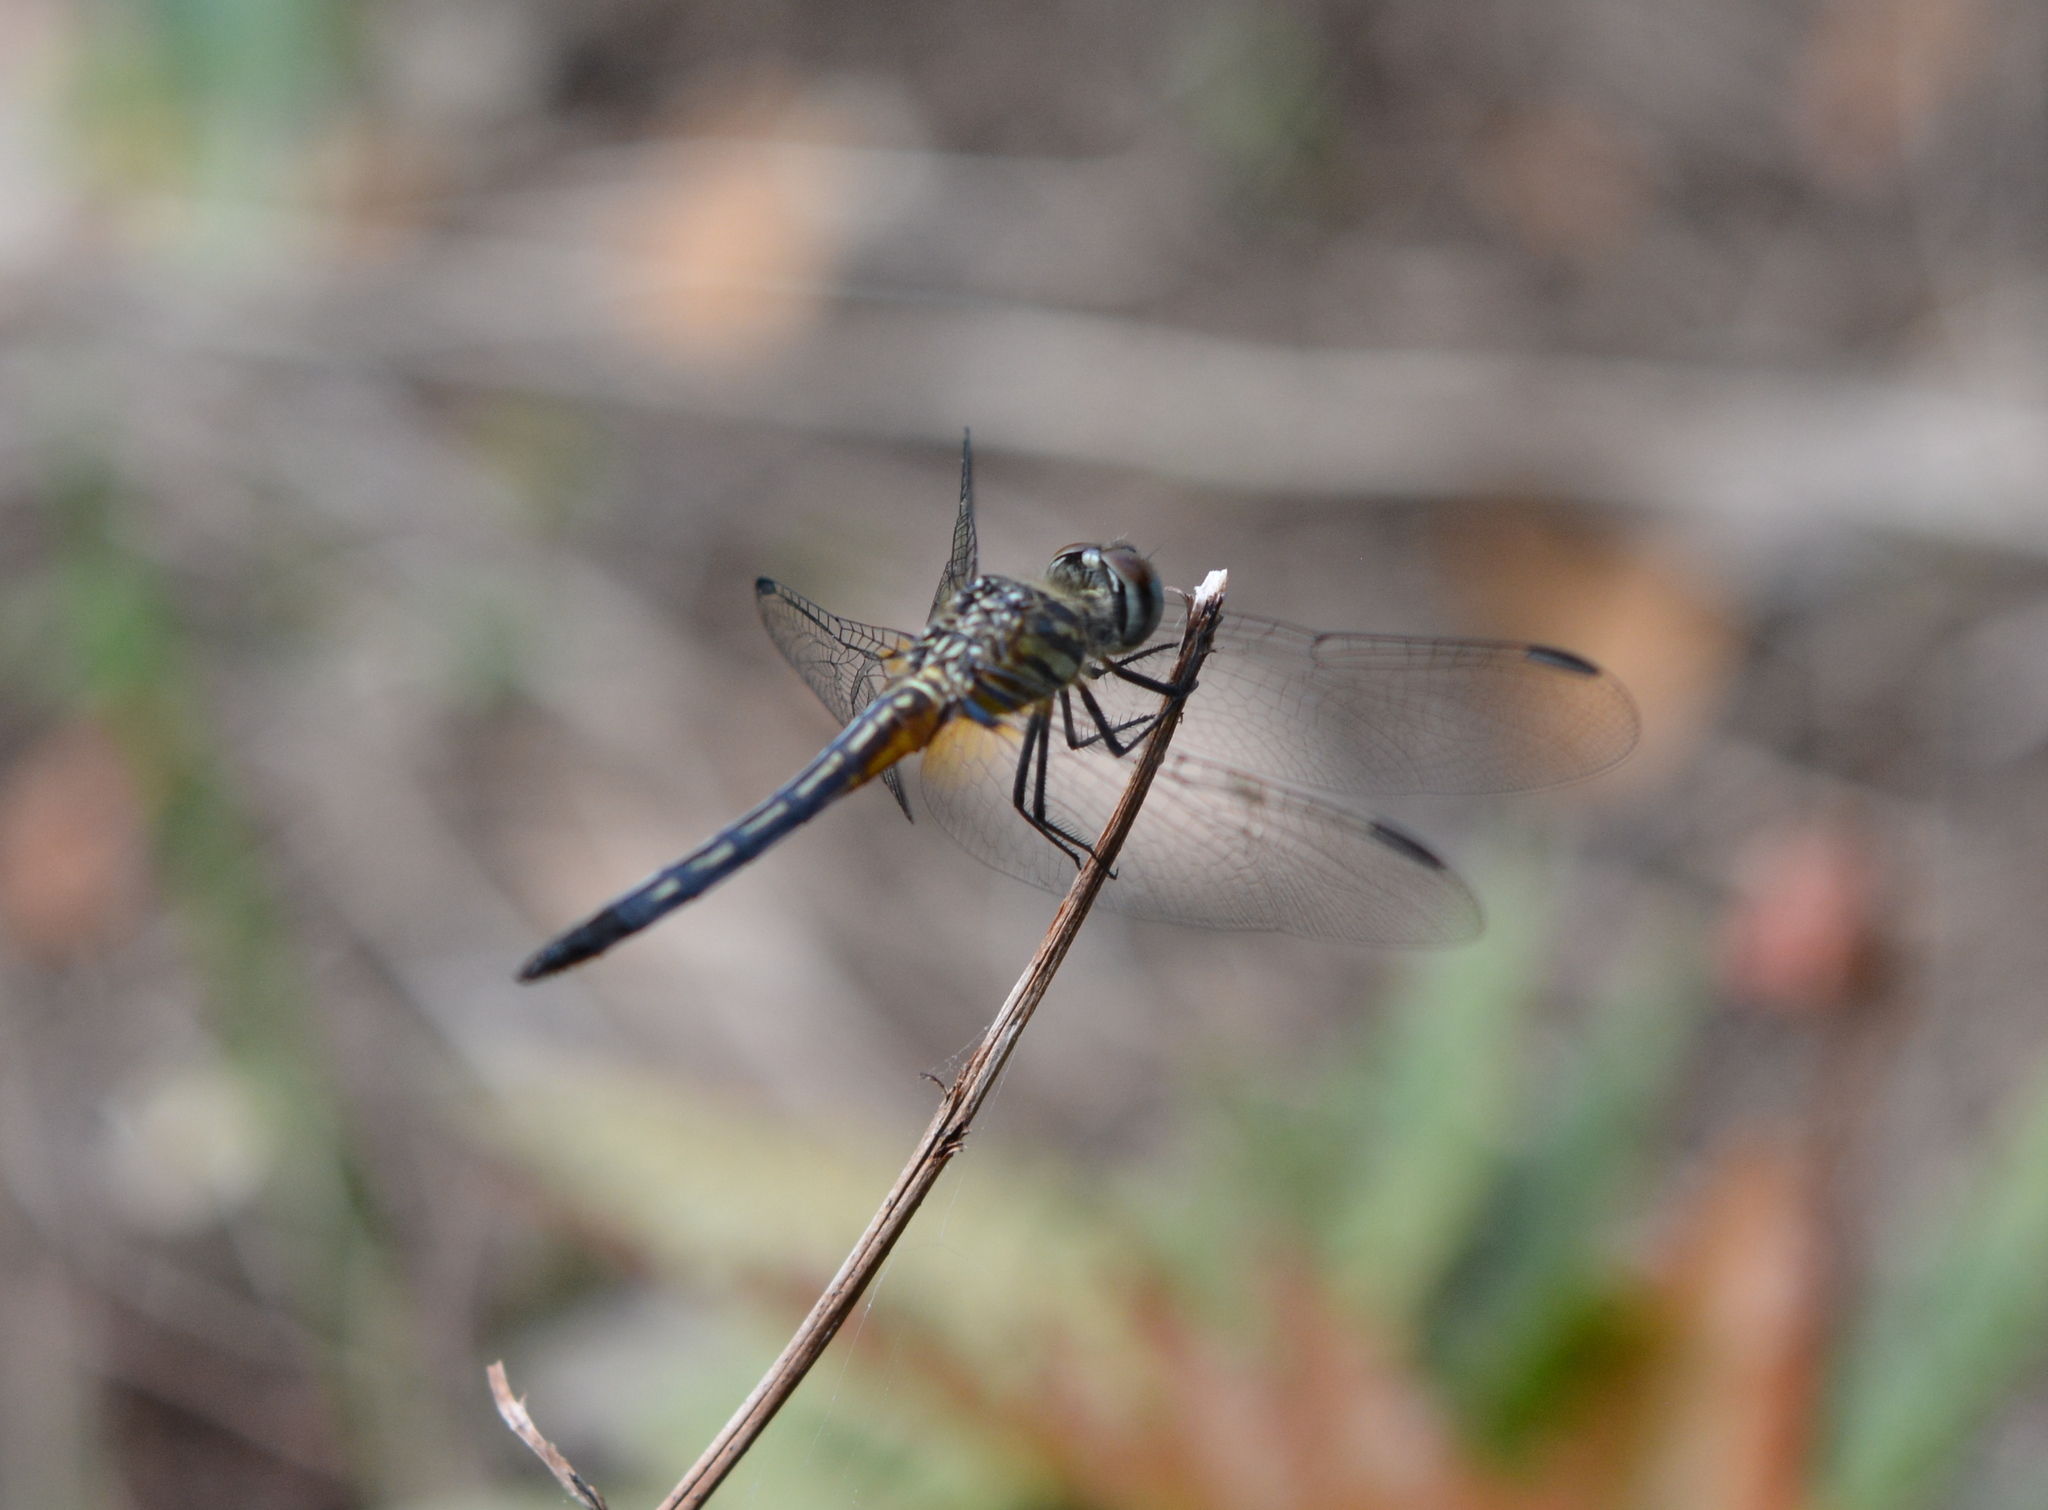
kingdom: Animalia
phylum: Arthropoda
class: Insecta
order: Odonata
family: Libellulidae
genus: Pachydiplax
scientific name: Pachydiplax longipennis
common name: Blue dasher
